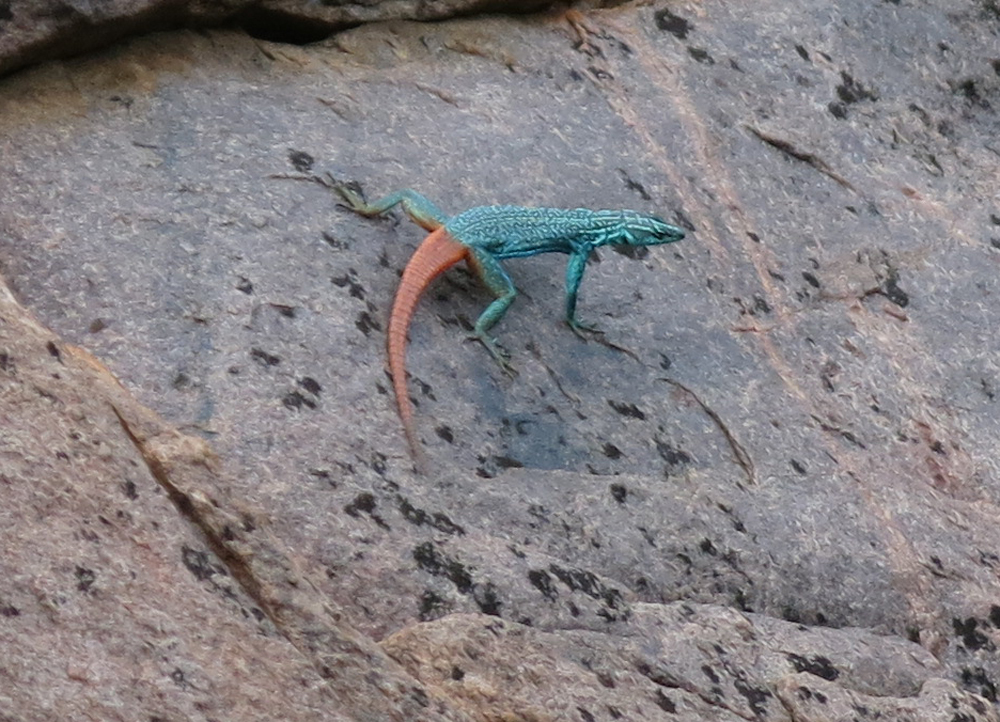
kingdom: Animalia
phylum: Chordata
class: Squamata
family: Cordylidae
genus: Platysaurus
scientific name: Platysaurus relictus
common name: Soutpansberg flat lizard
